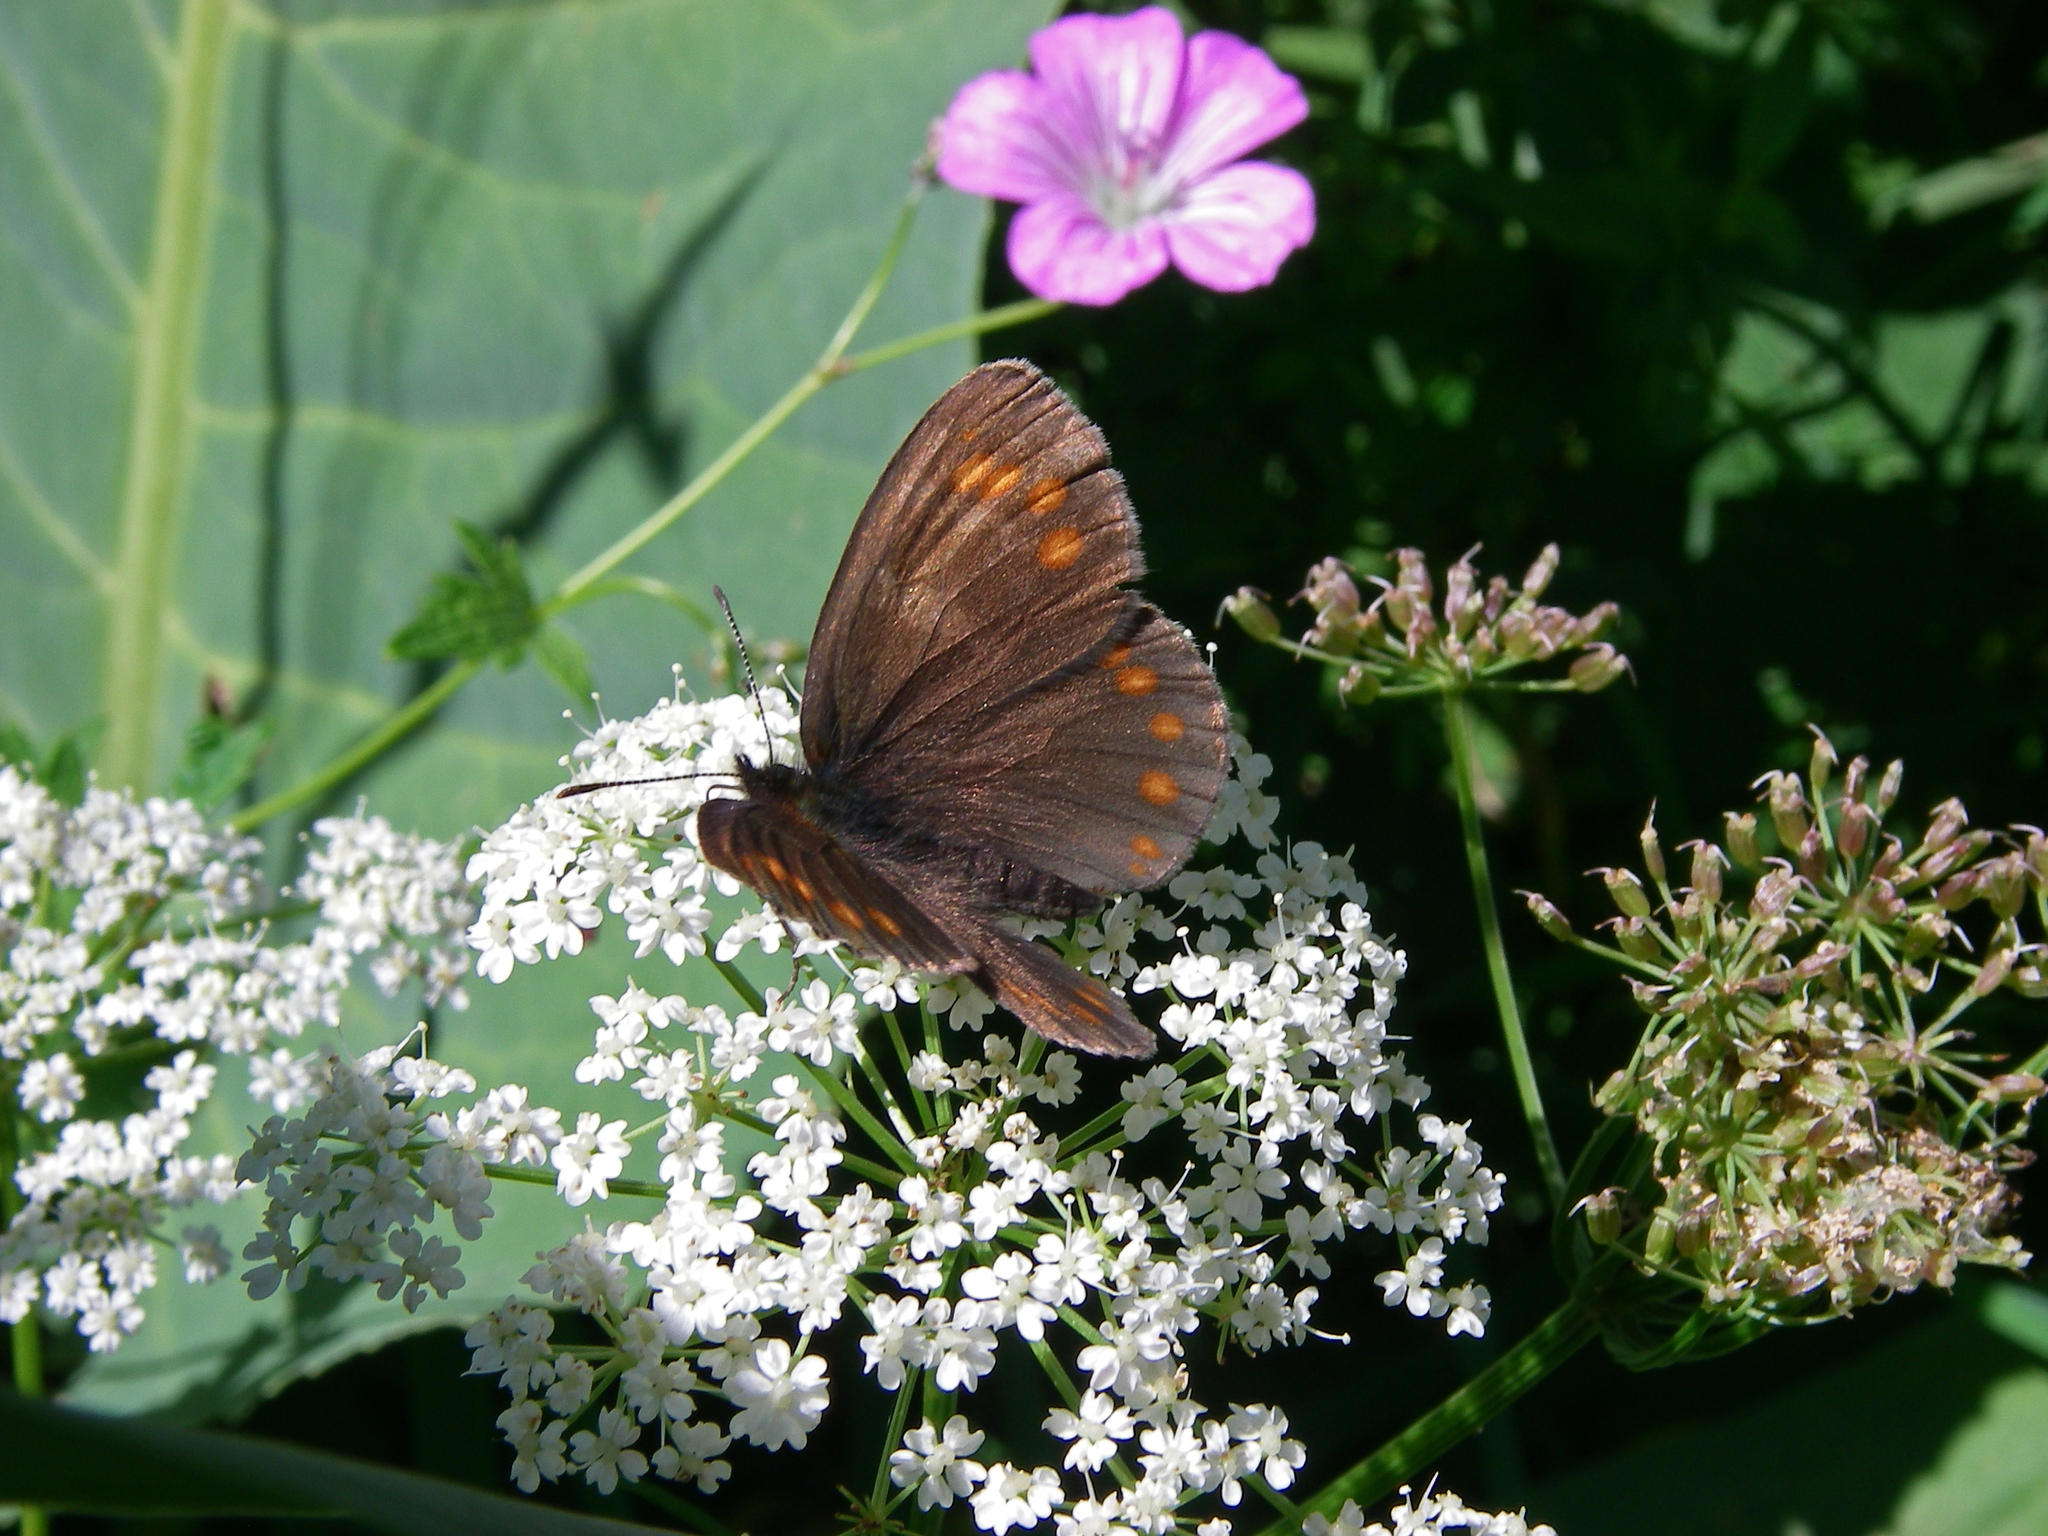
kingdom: Animalia
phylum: Arthropoda
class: Insecta
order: Lepidoptera
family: Nymphalidae
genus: Erebia
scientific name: Erebia turanica
